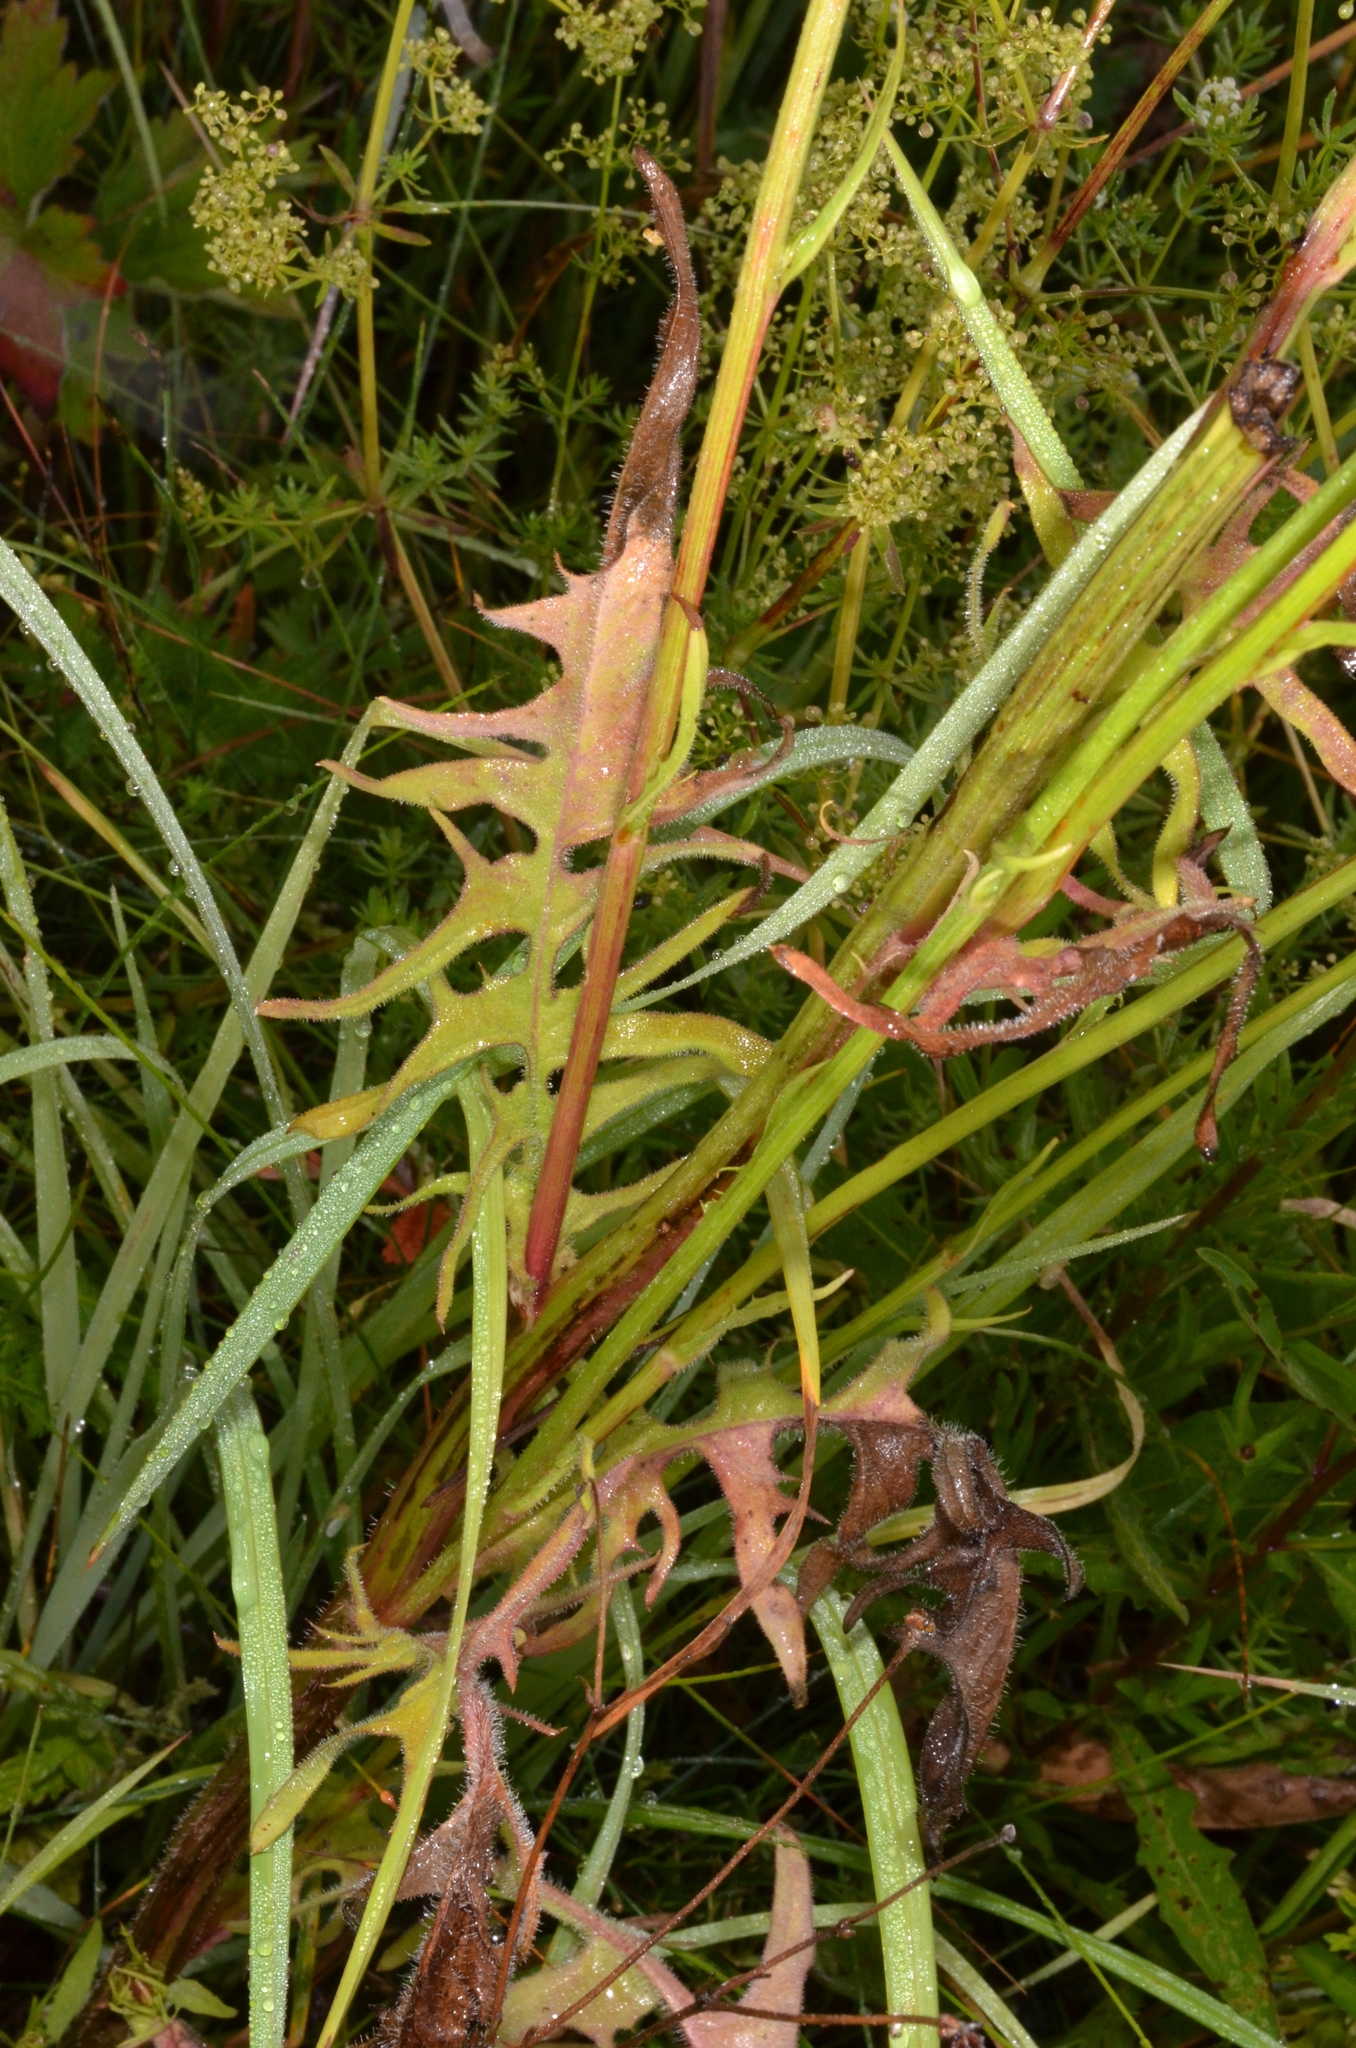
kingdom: Plantae
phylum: Tracheophyta
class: Magnoliopsida
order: Asterales
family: Asteraceae
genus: Crepis
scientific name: Crepis biennis
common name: Rough hawk's-beard
